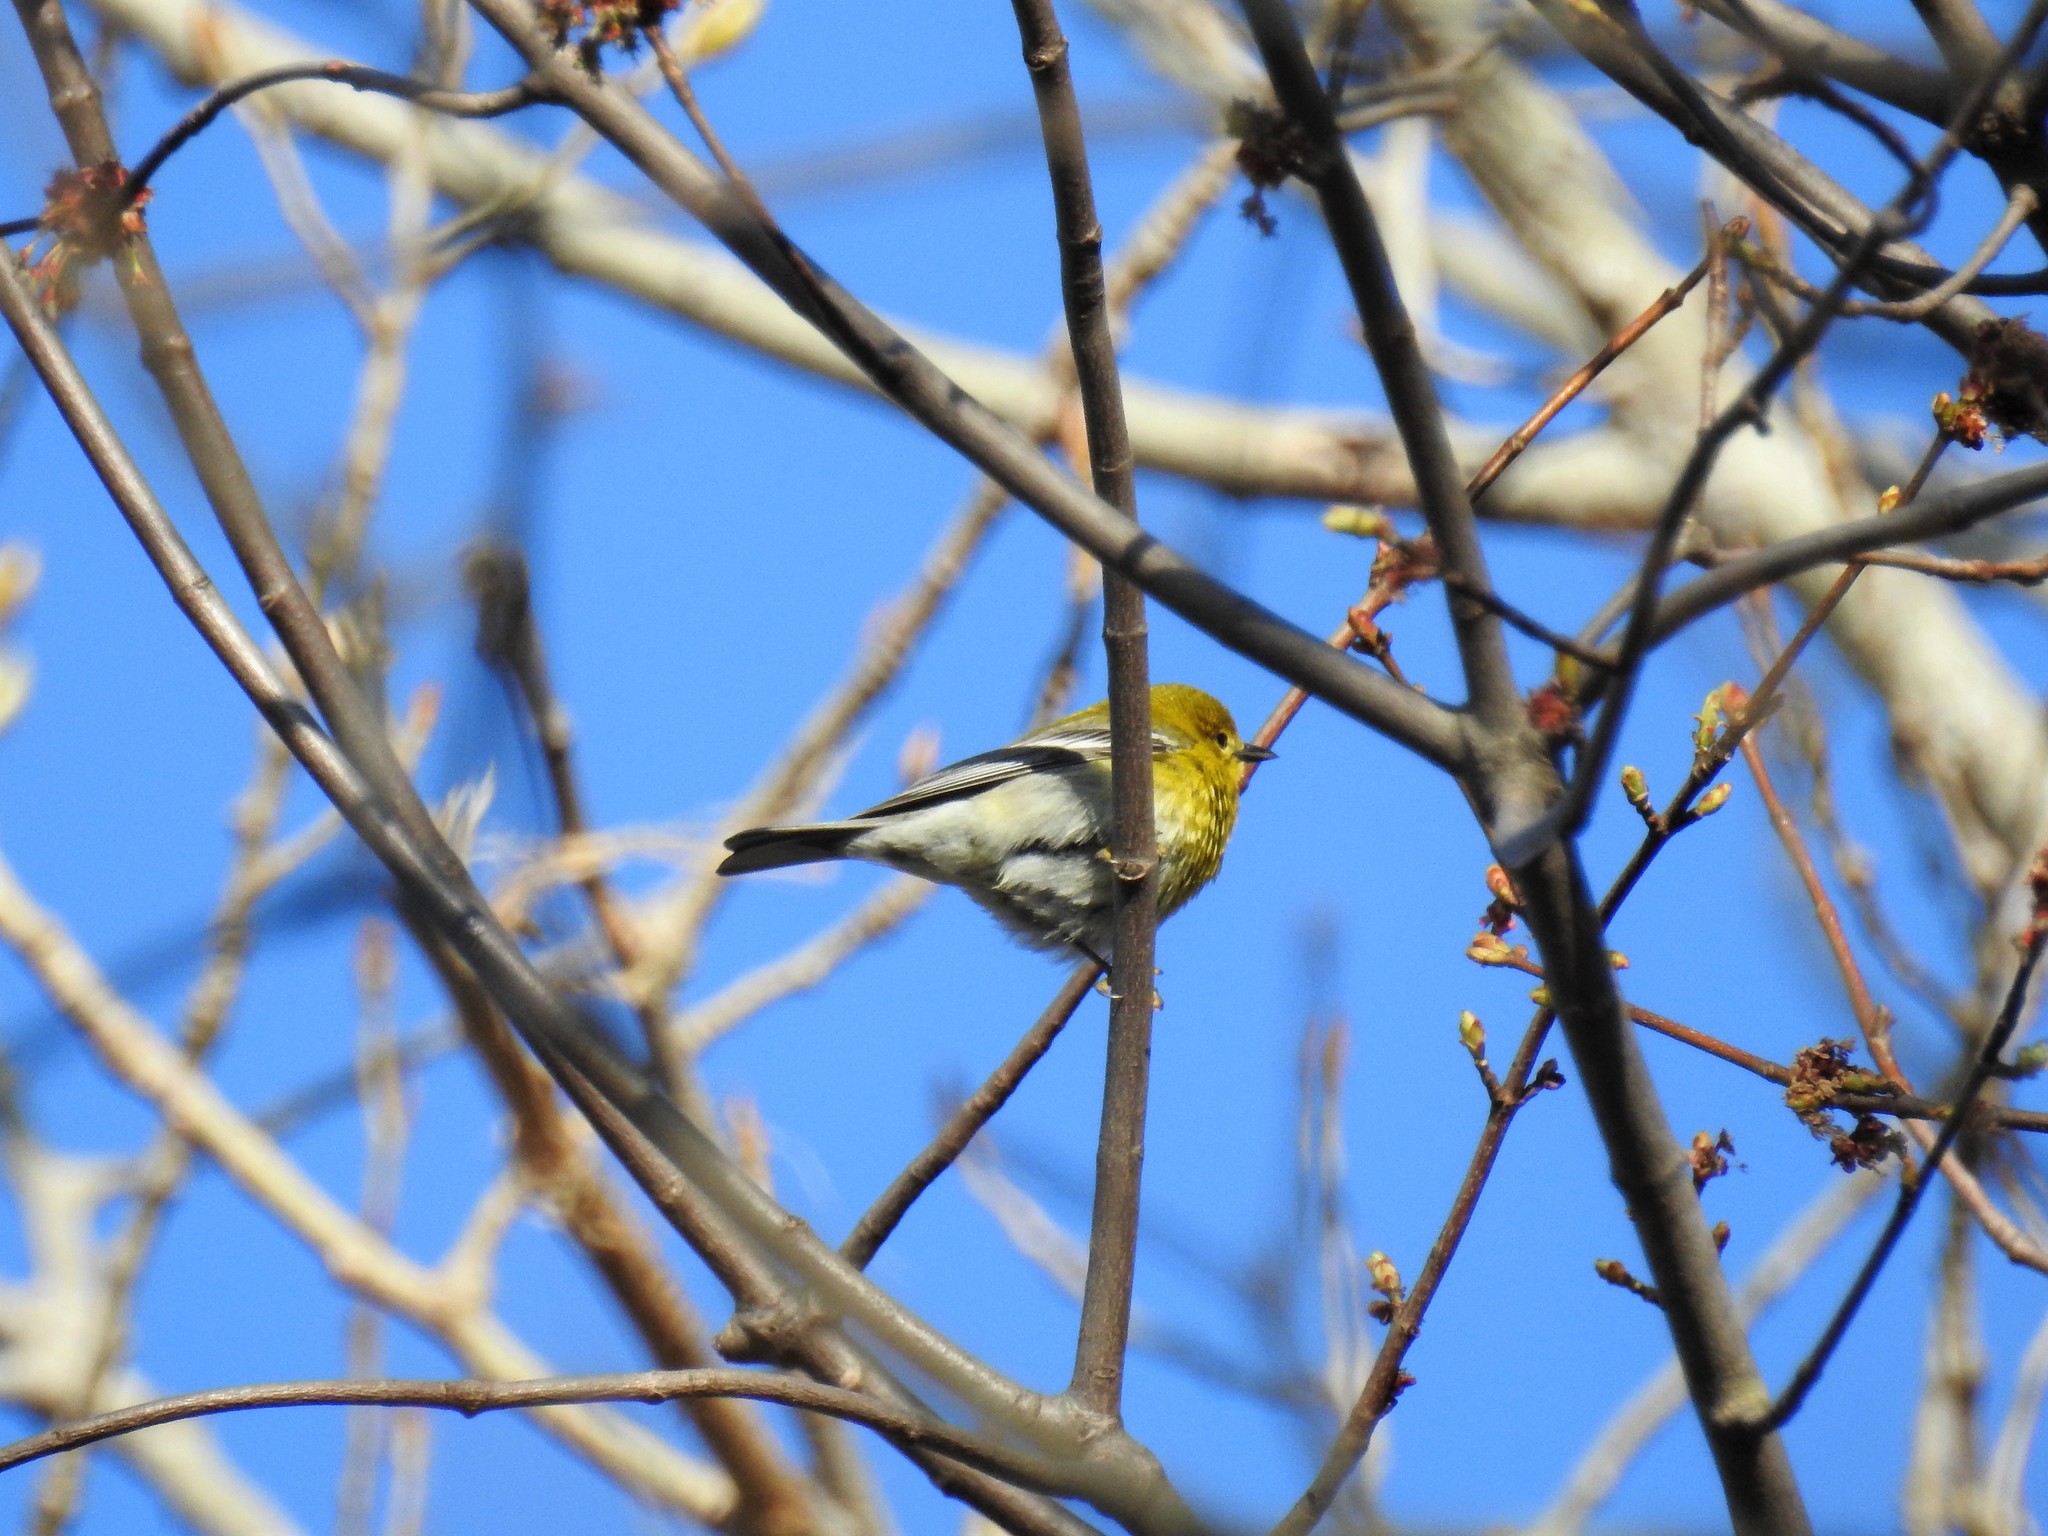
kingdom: Animalia
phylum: Chordata
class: Aves
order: Passeriformes
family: Parulidae
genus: Setophaga
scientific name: Setophaga pinus
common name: Pine warbler
